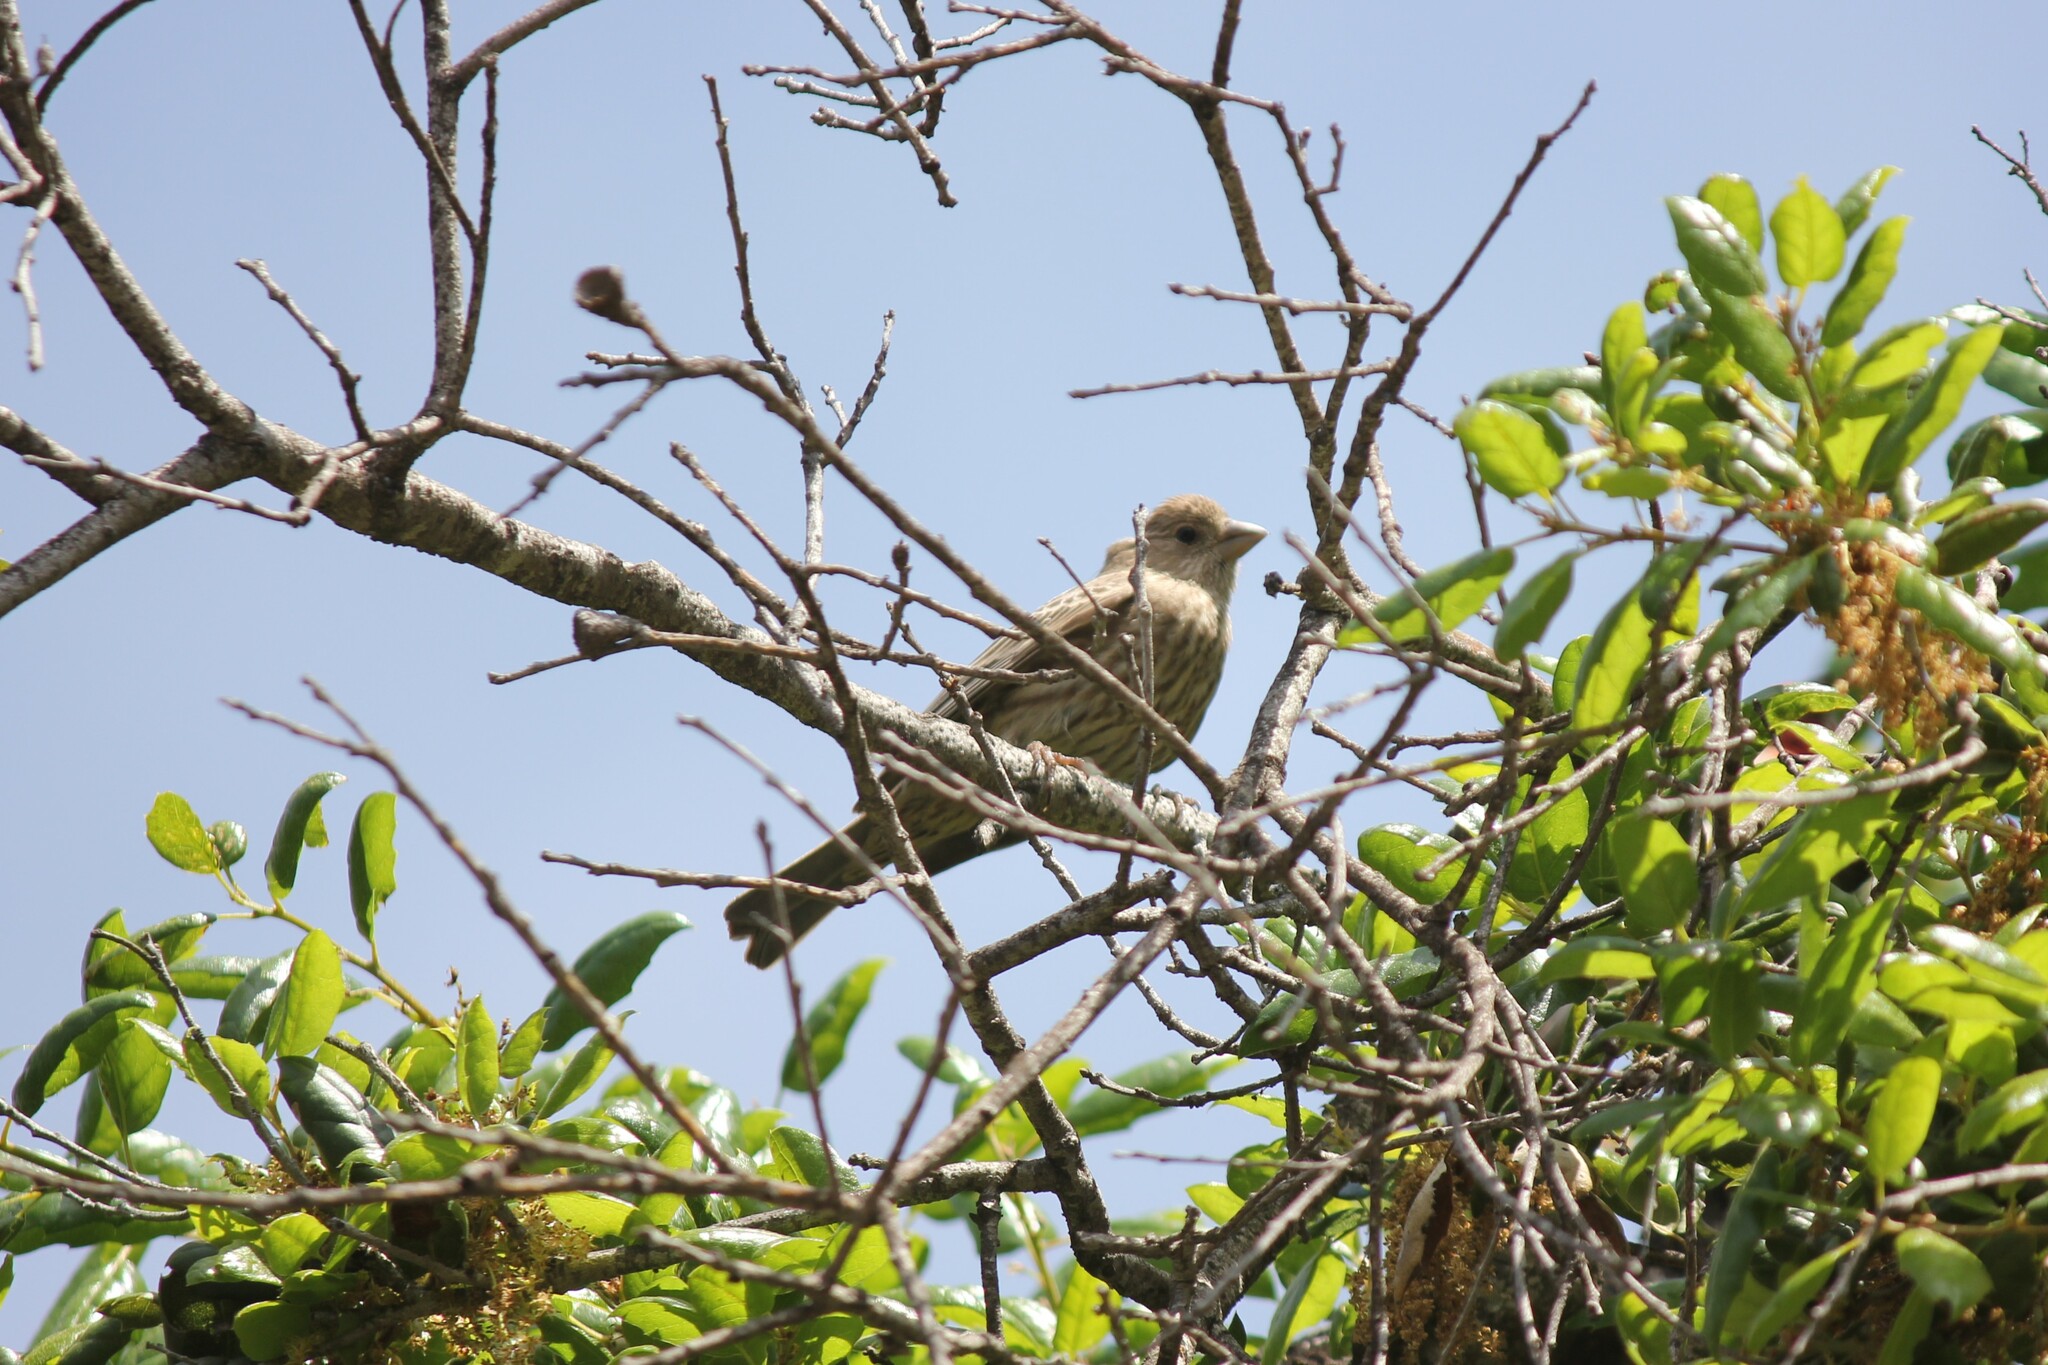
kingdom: Animalia
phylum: Chordata
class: Aves
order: Passeriformes
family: Fringillidae
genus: Haemorhous
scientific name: Haemorhous mexicanus
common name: House finch
